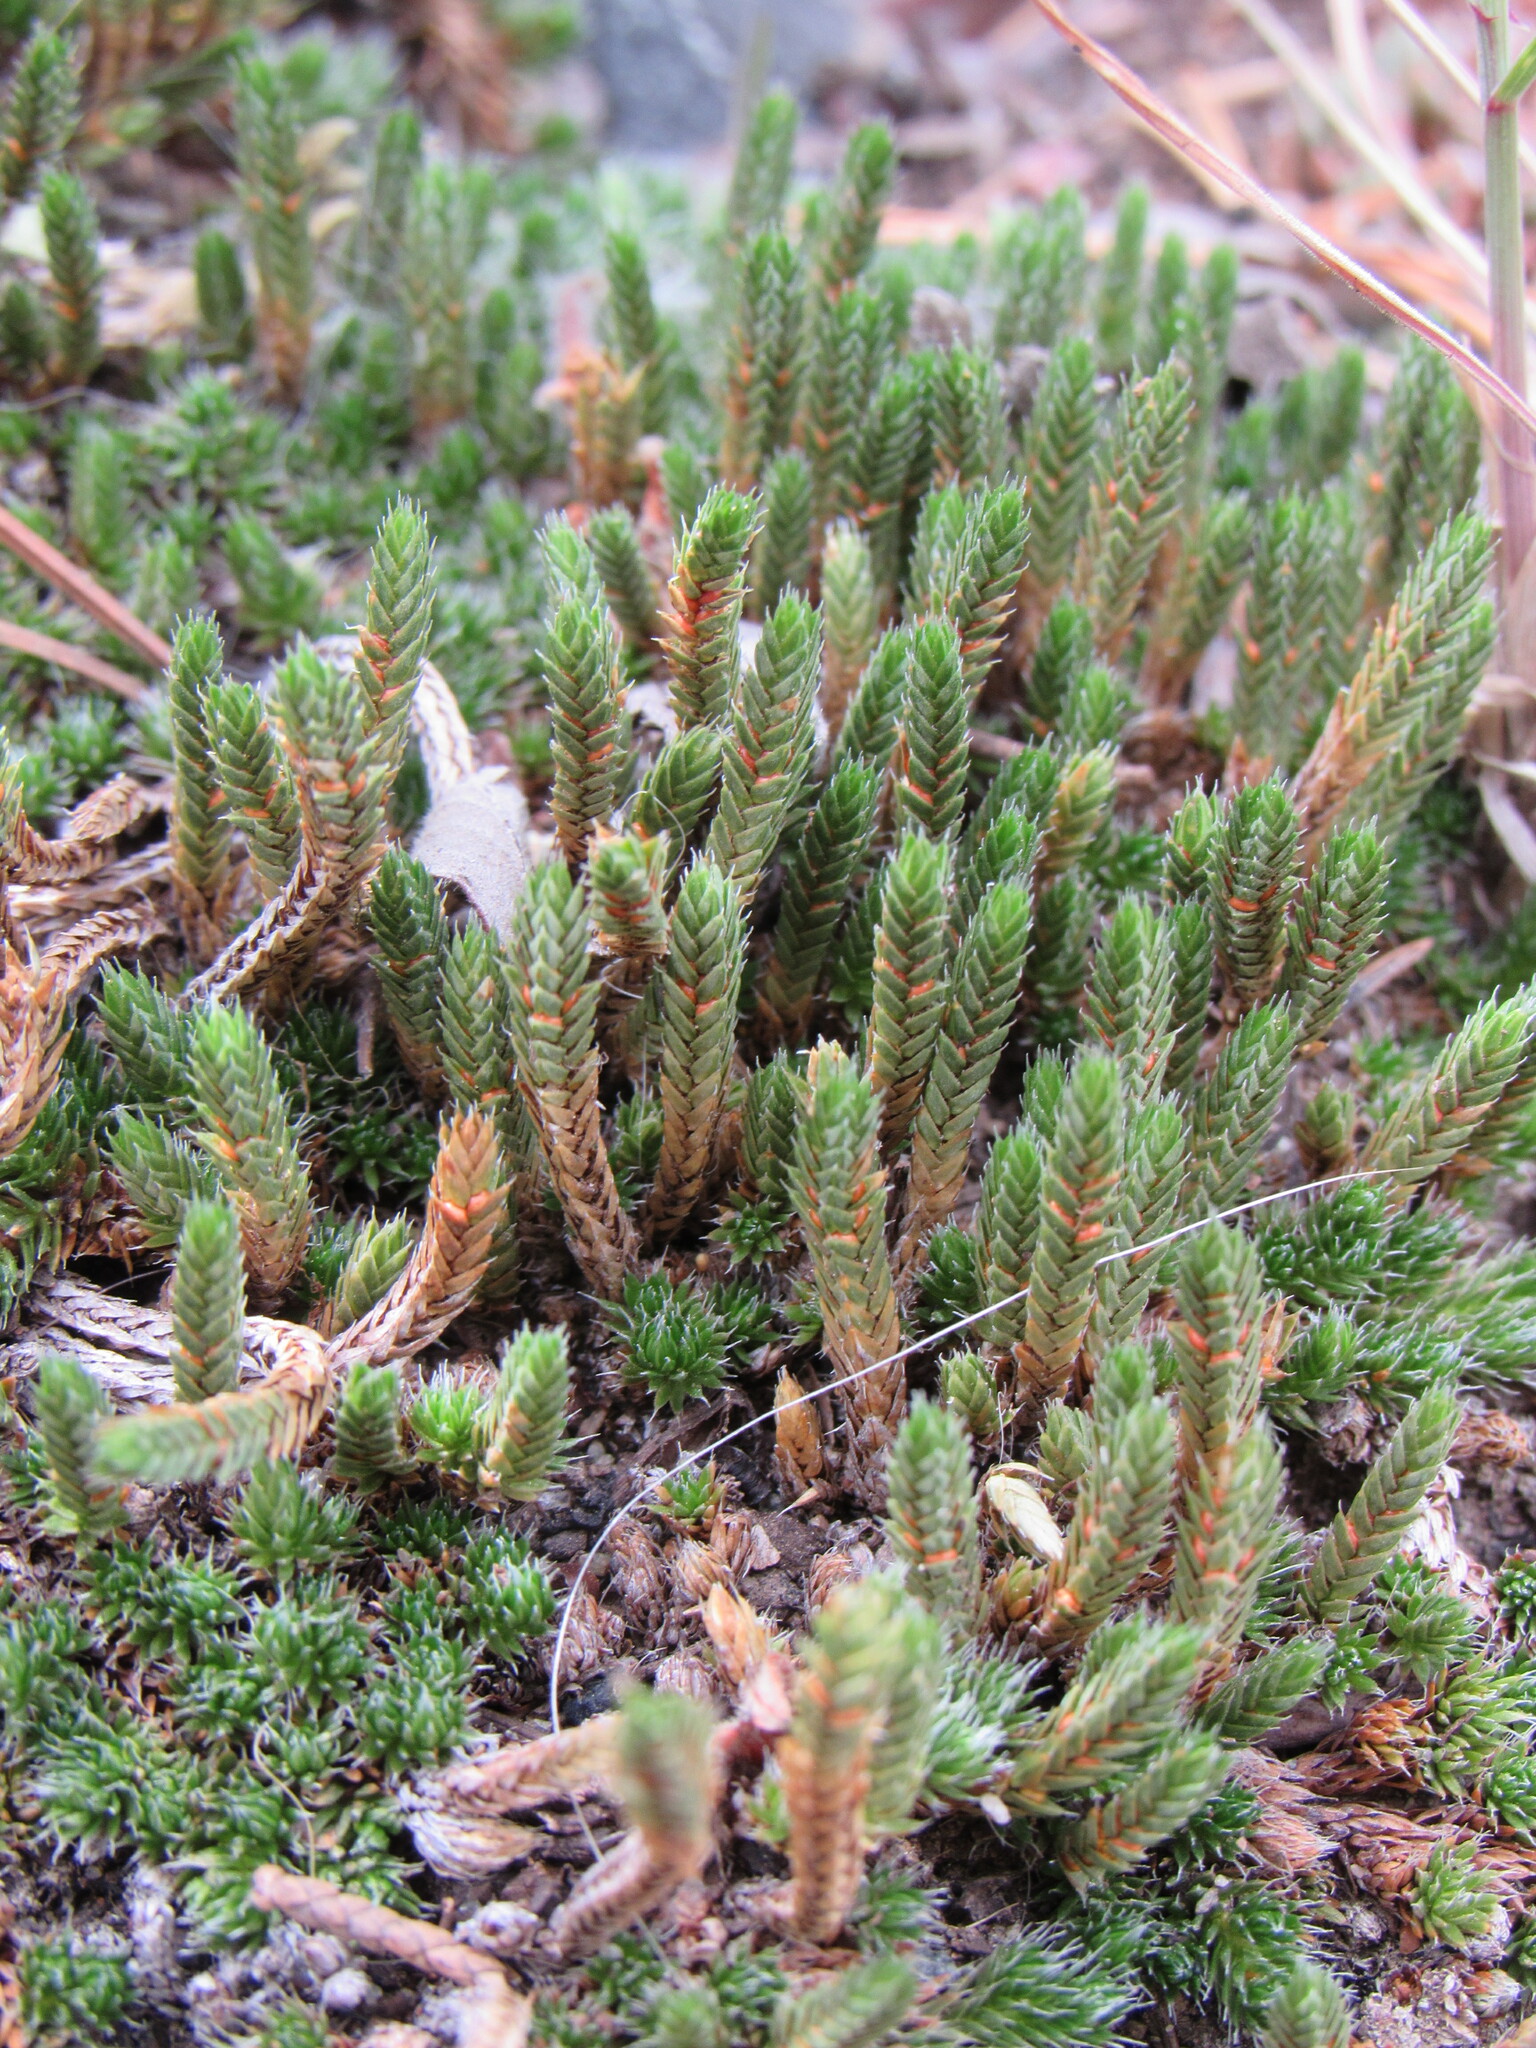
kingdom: Plantae
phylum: Tracheophyta
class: Lycopodiopsida
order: Selaginellales
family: Selaginellaceae
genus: Selaginella
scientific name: Selaginella densa
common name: Mountain spike-moss
